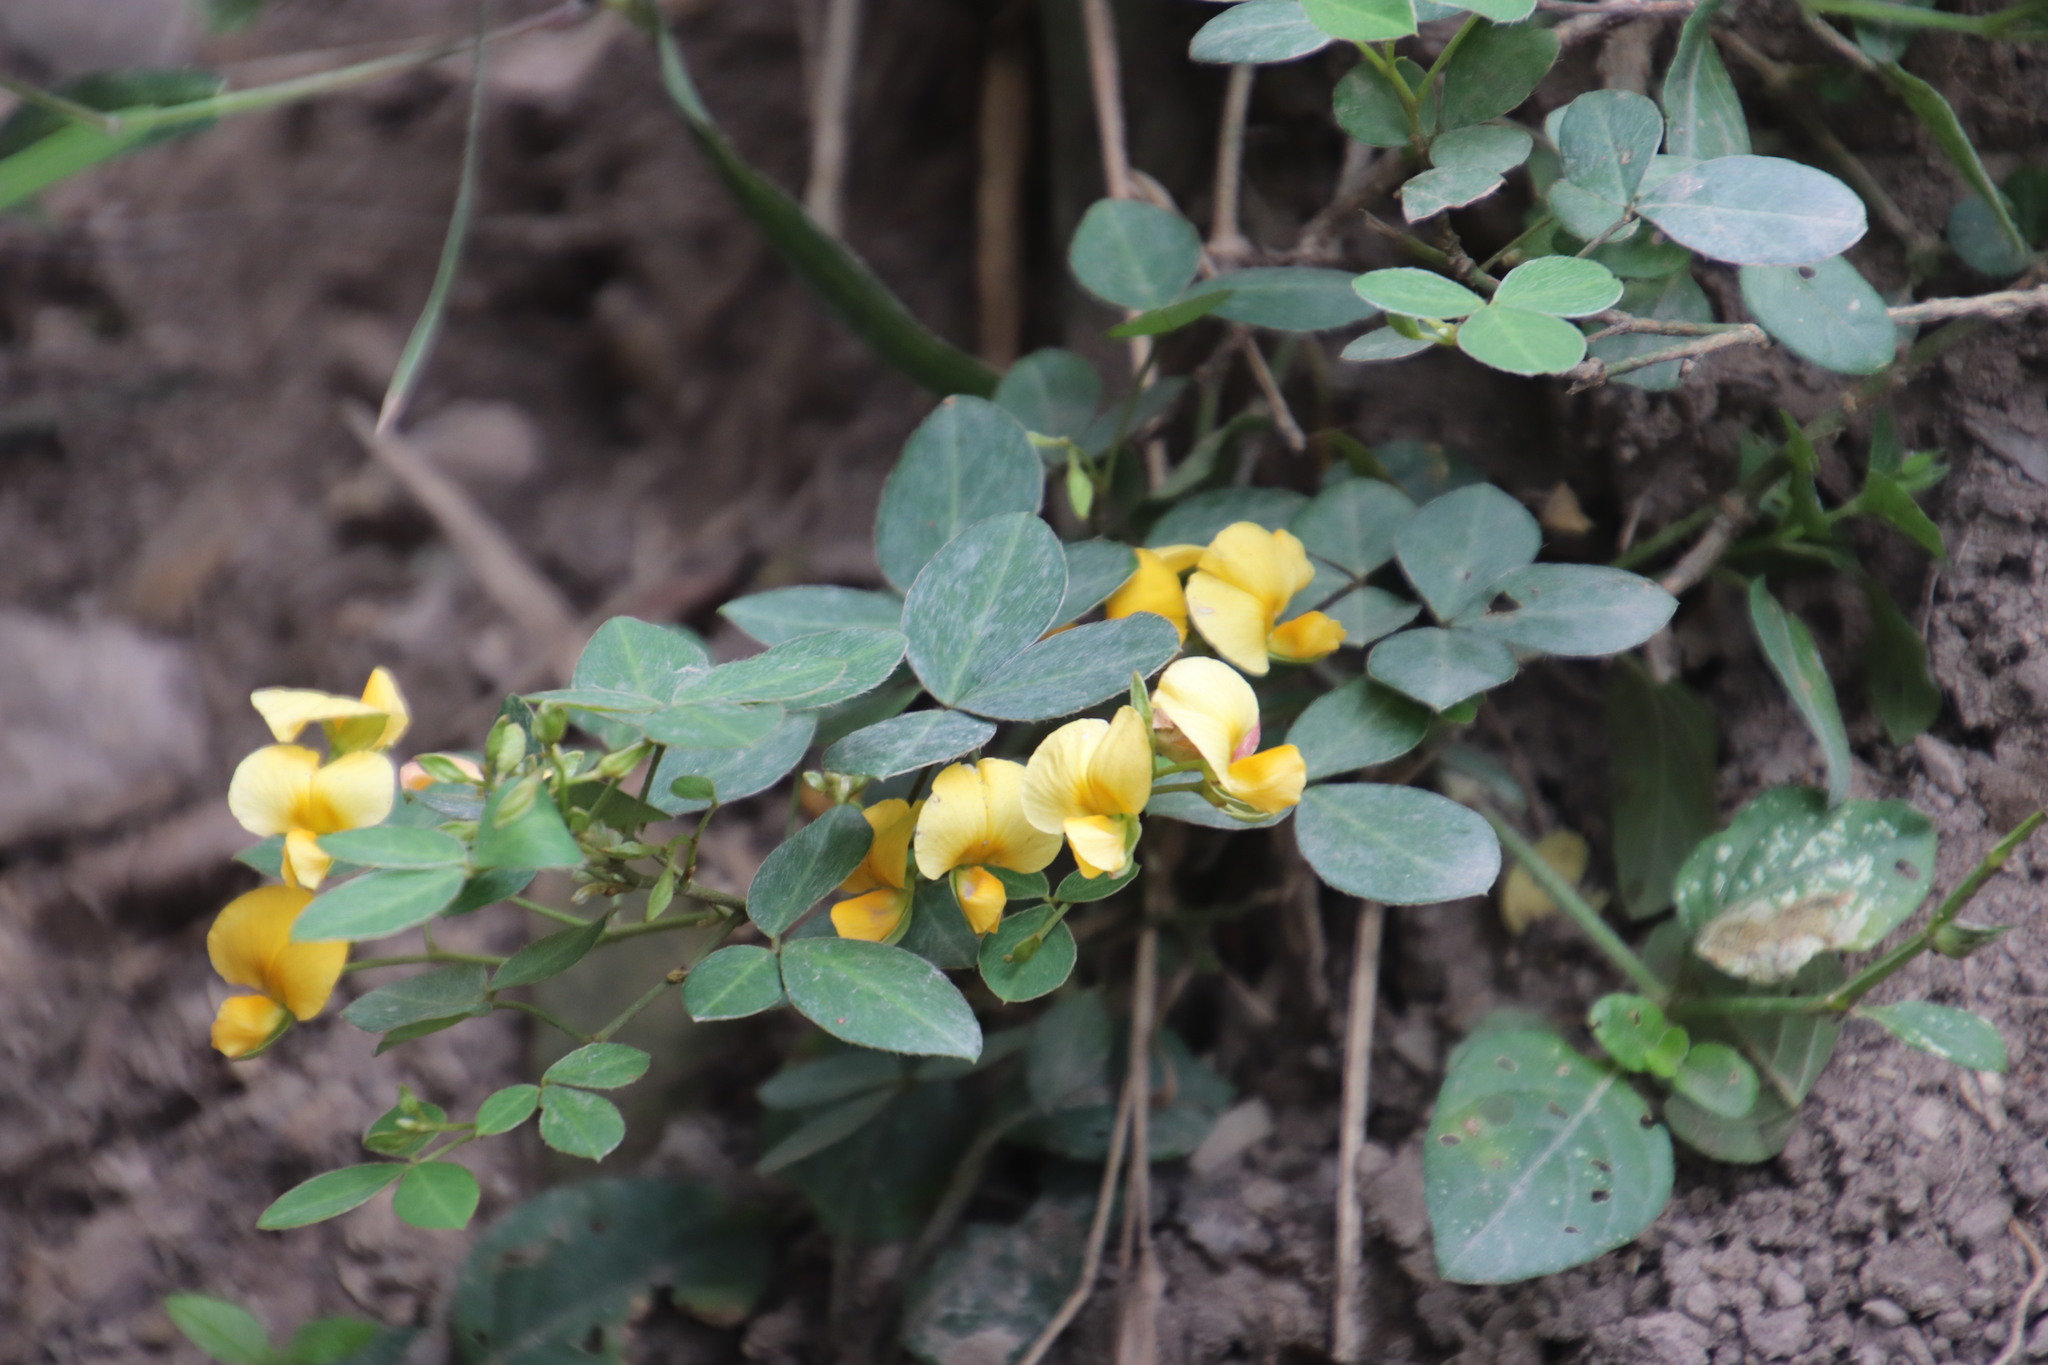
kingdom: Plantae
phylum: Tracheophyta
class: Magnoliopsida
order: Fabales
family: Fabaceae
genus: Argyrolobium
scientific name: Argyrolobium tomentosum
